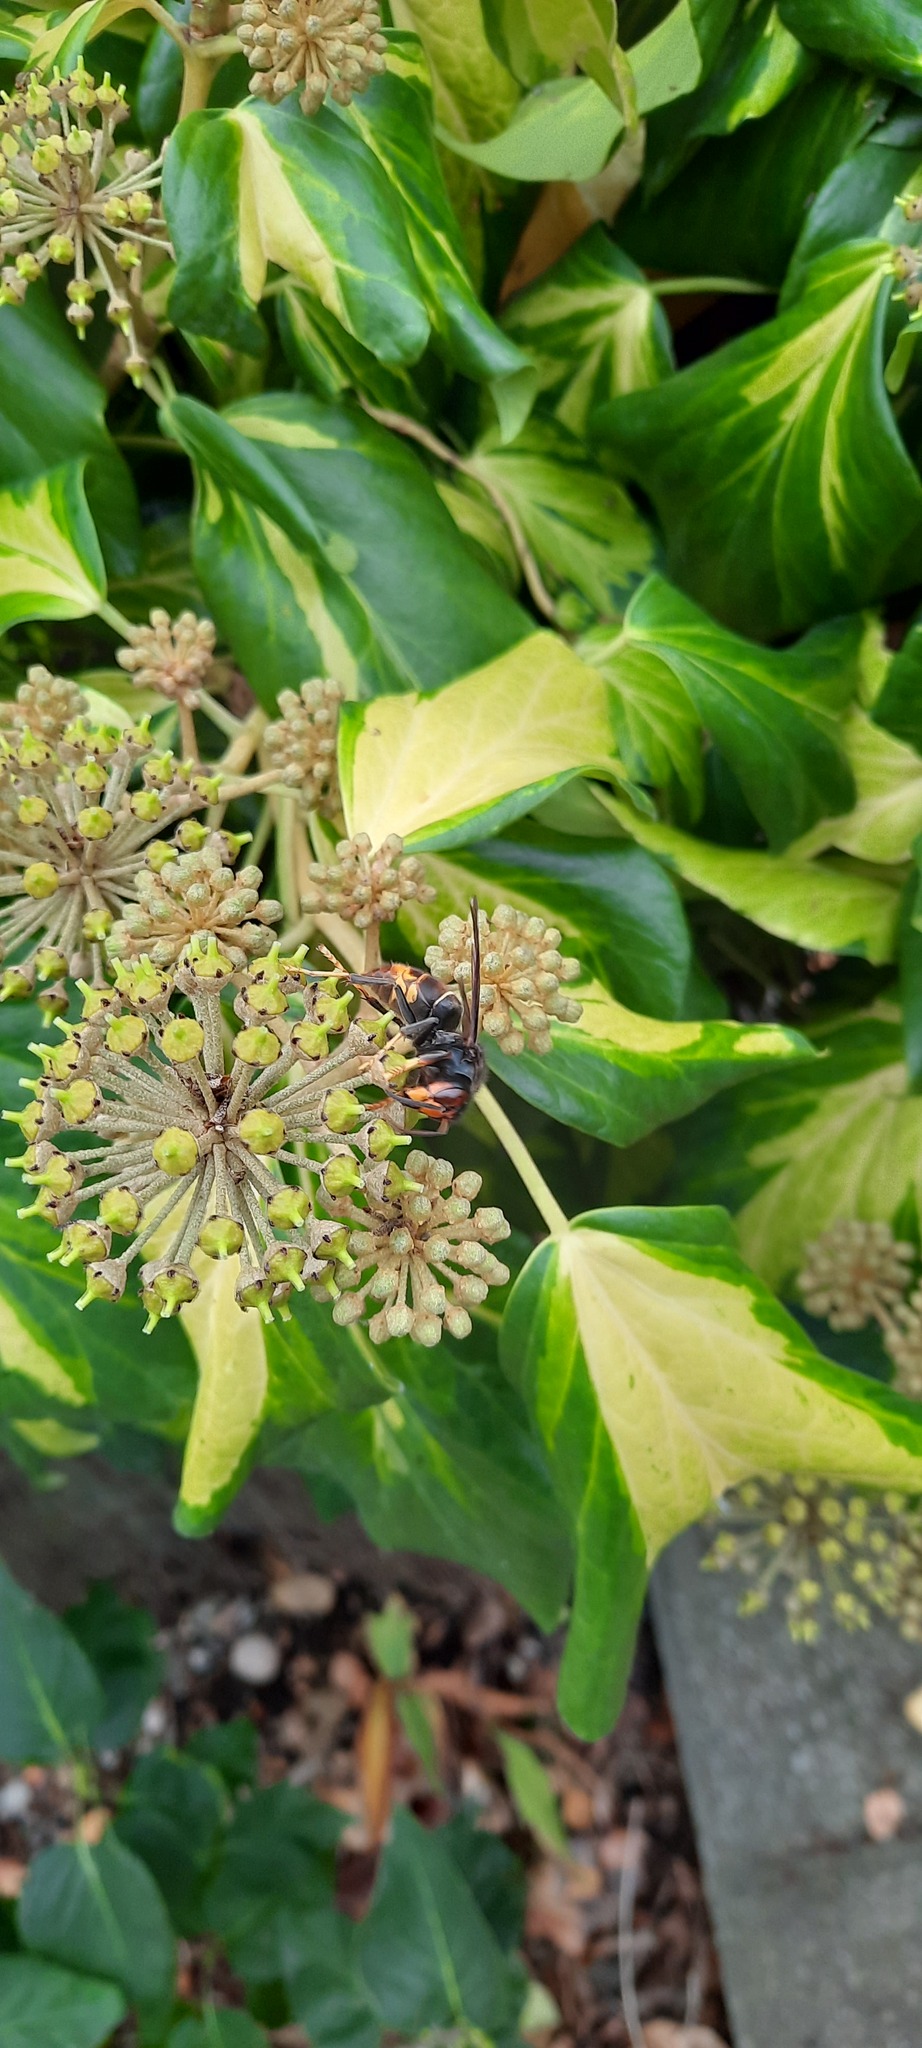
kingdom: Animalia
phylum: Arthropoda
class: Insecta
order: Hymenoptera
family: Vespidae
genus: Vespa
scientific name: Vespa velutina
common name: Asian hornet
